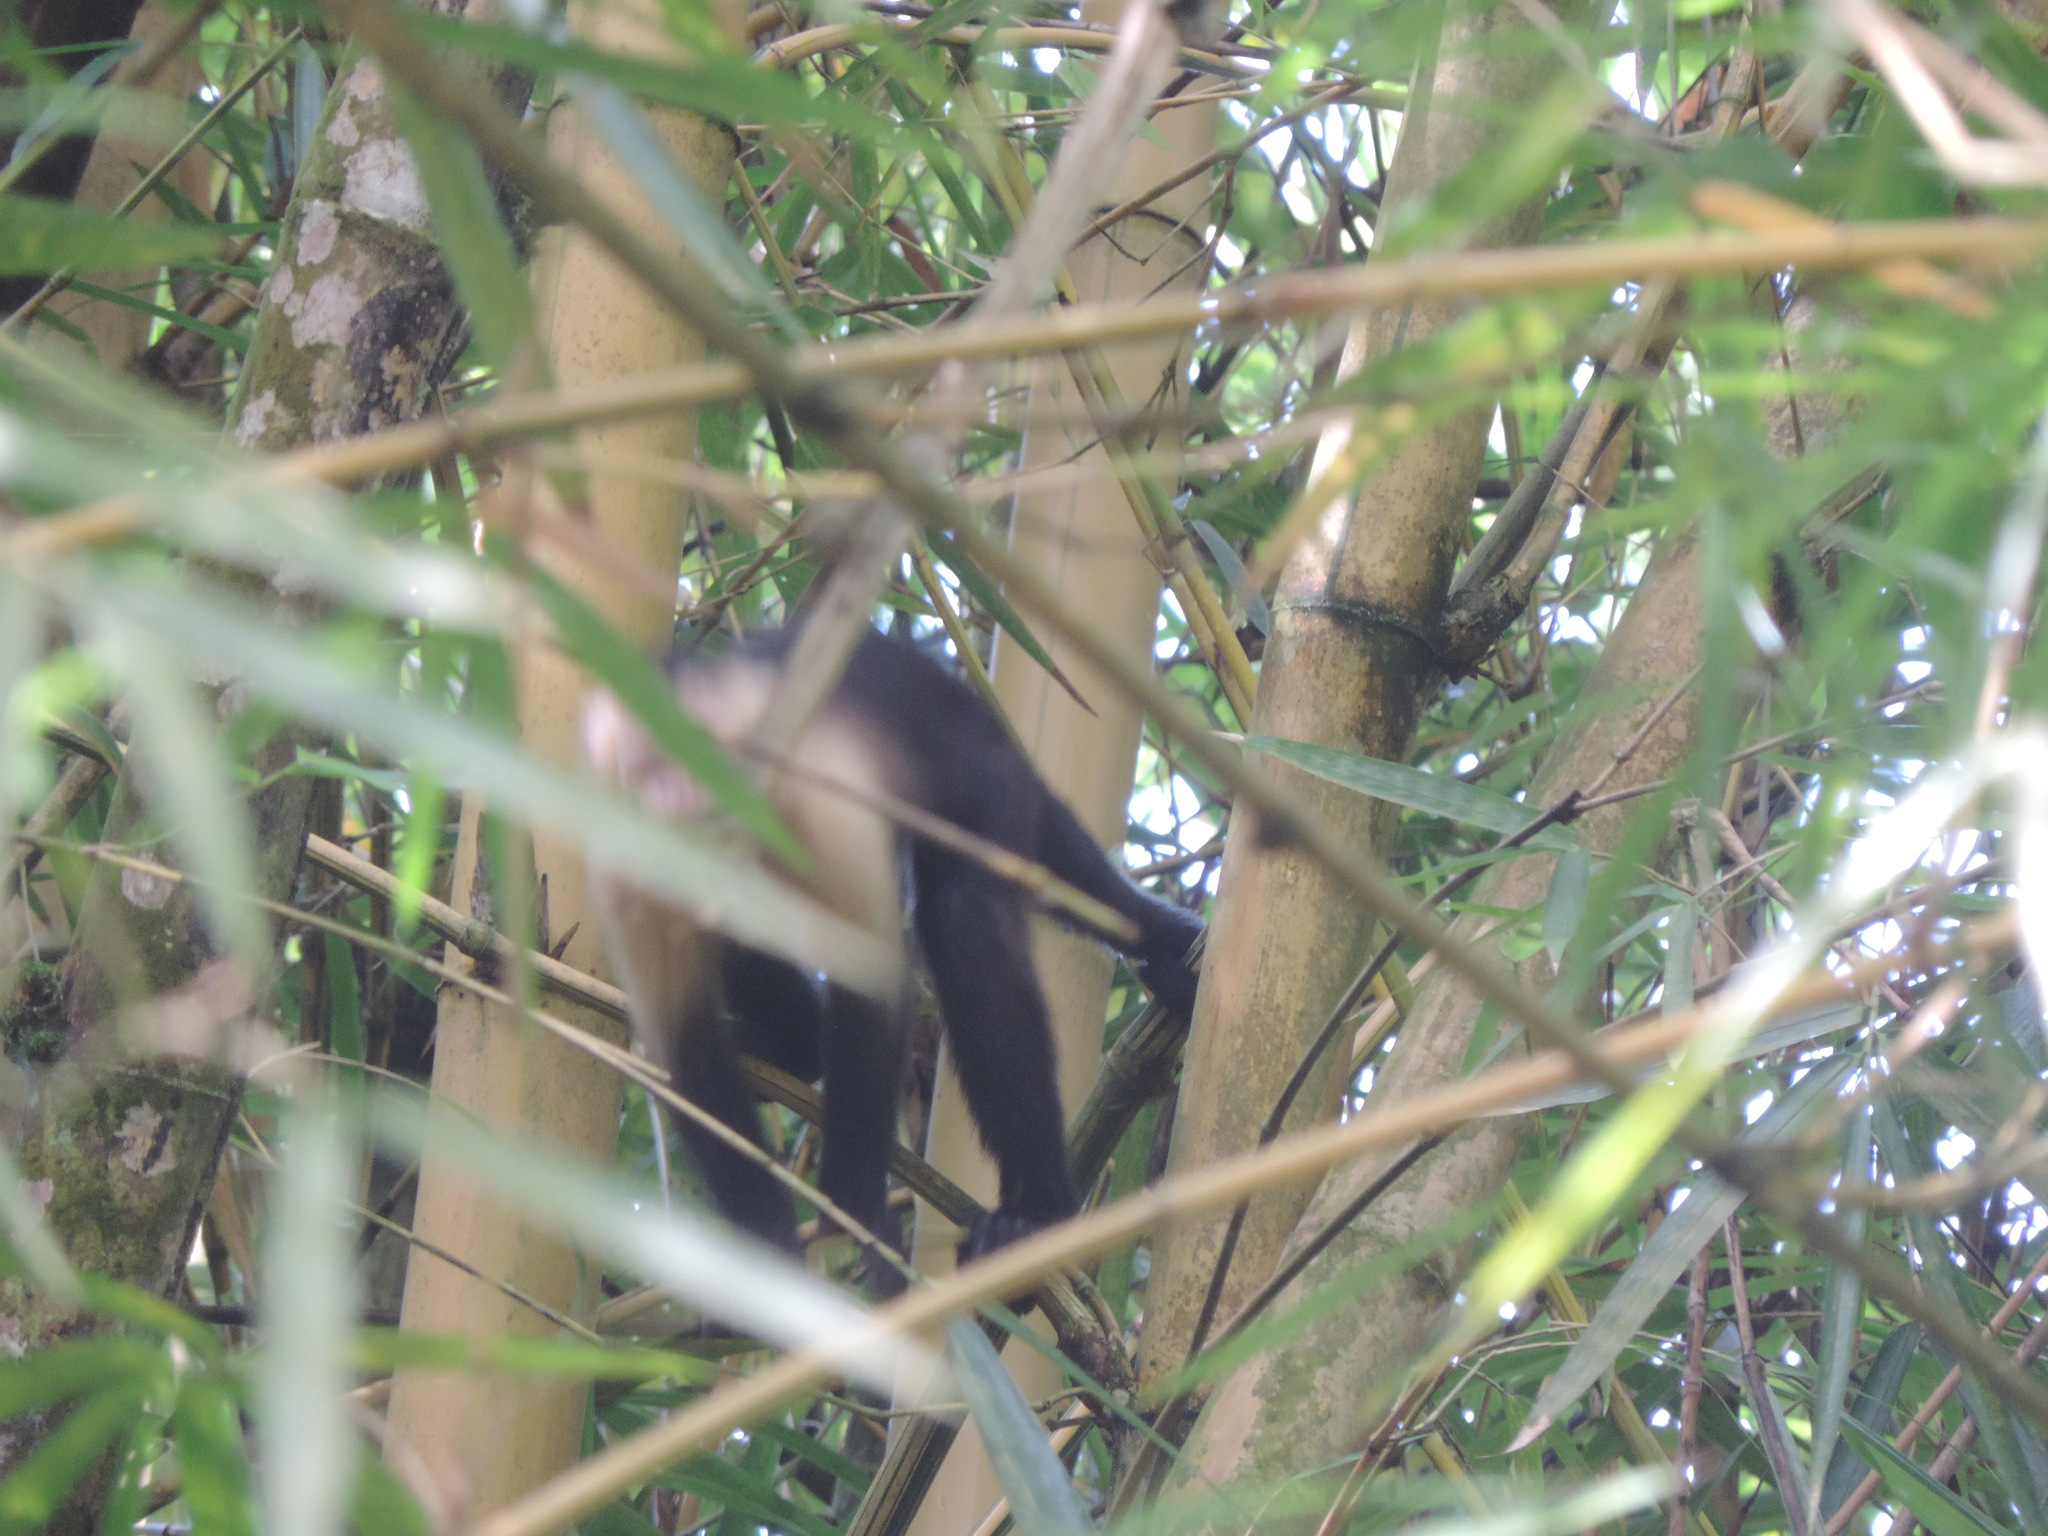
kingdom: Animalia
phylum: Chordata
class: Mammalia
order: Primates
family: Cebidae
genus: Cebus
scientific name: Cebus capucinus
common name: White-headed capuchin
